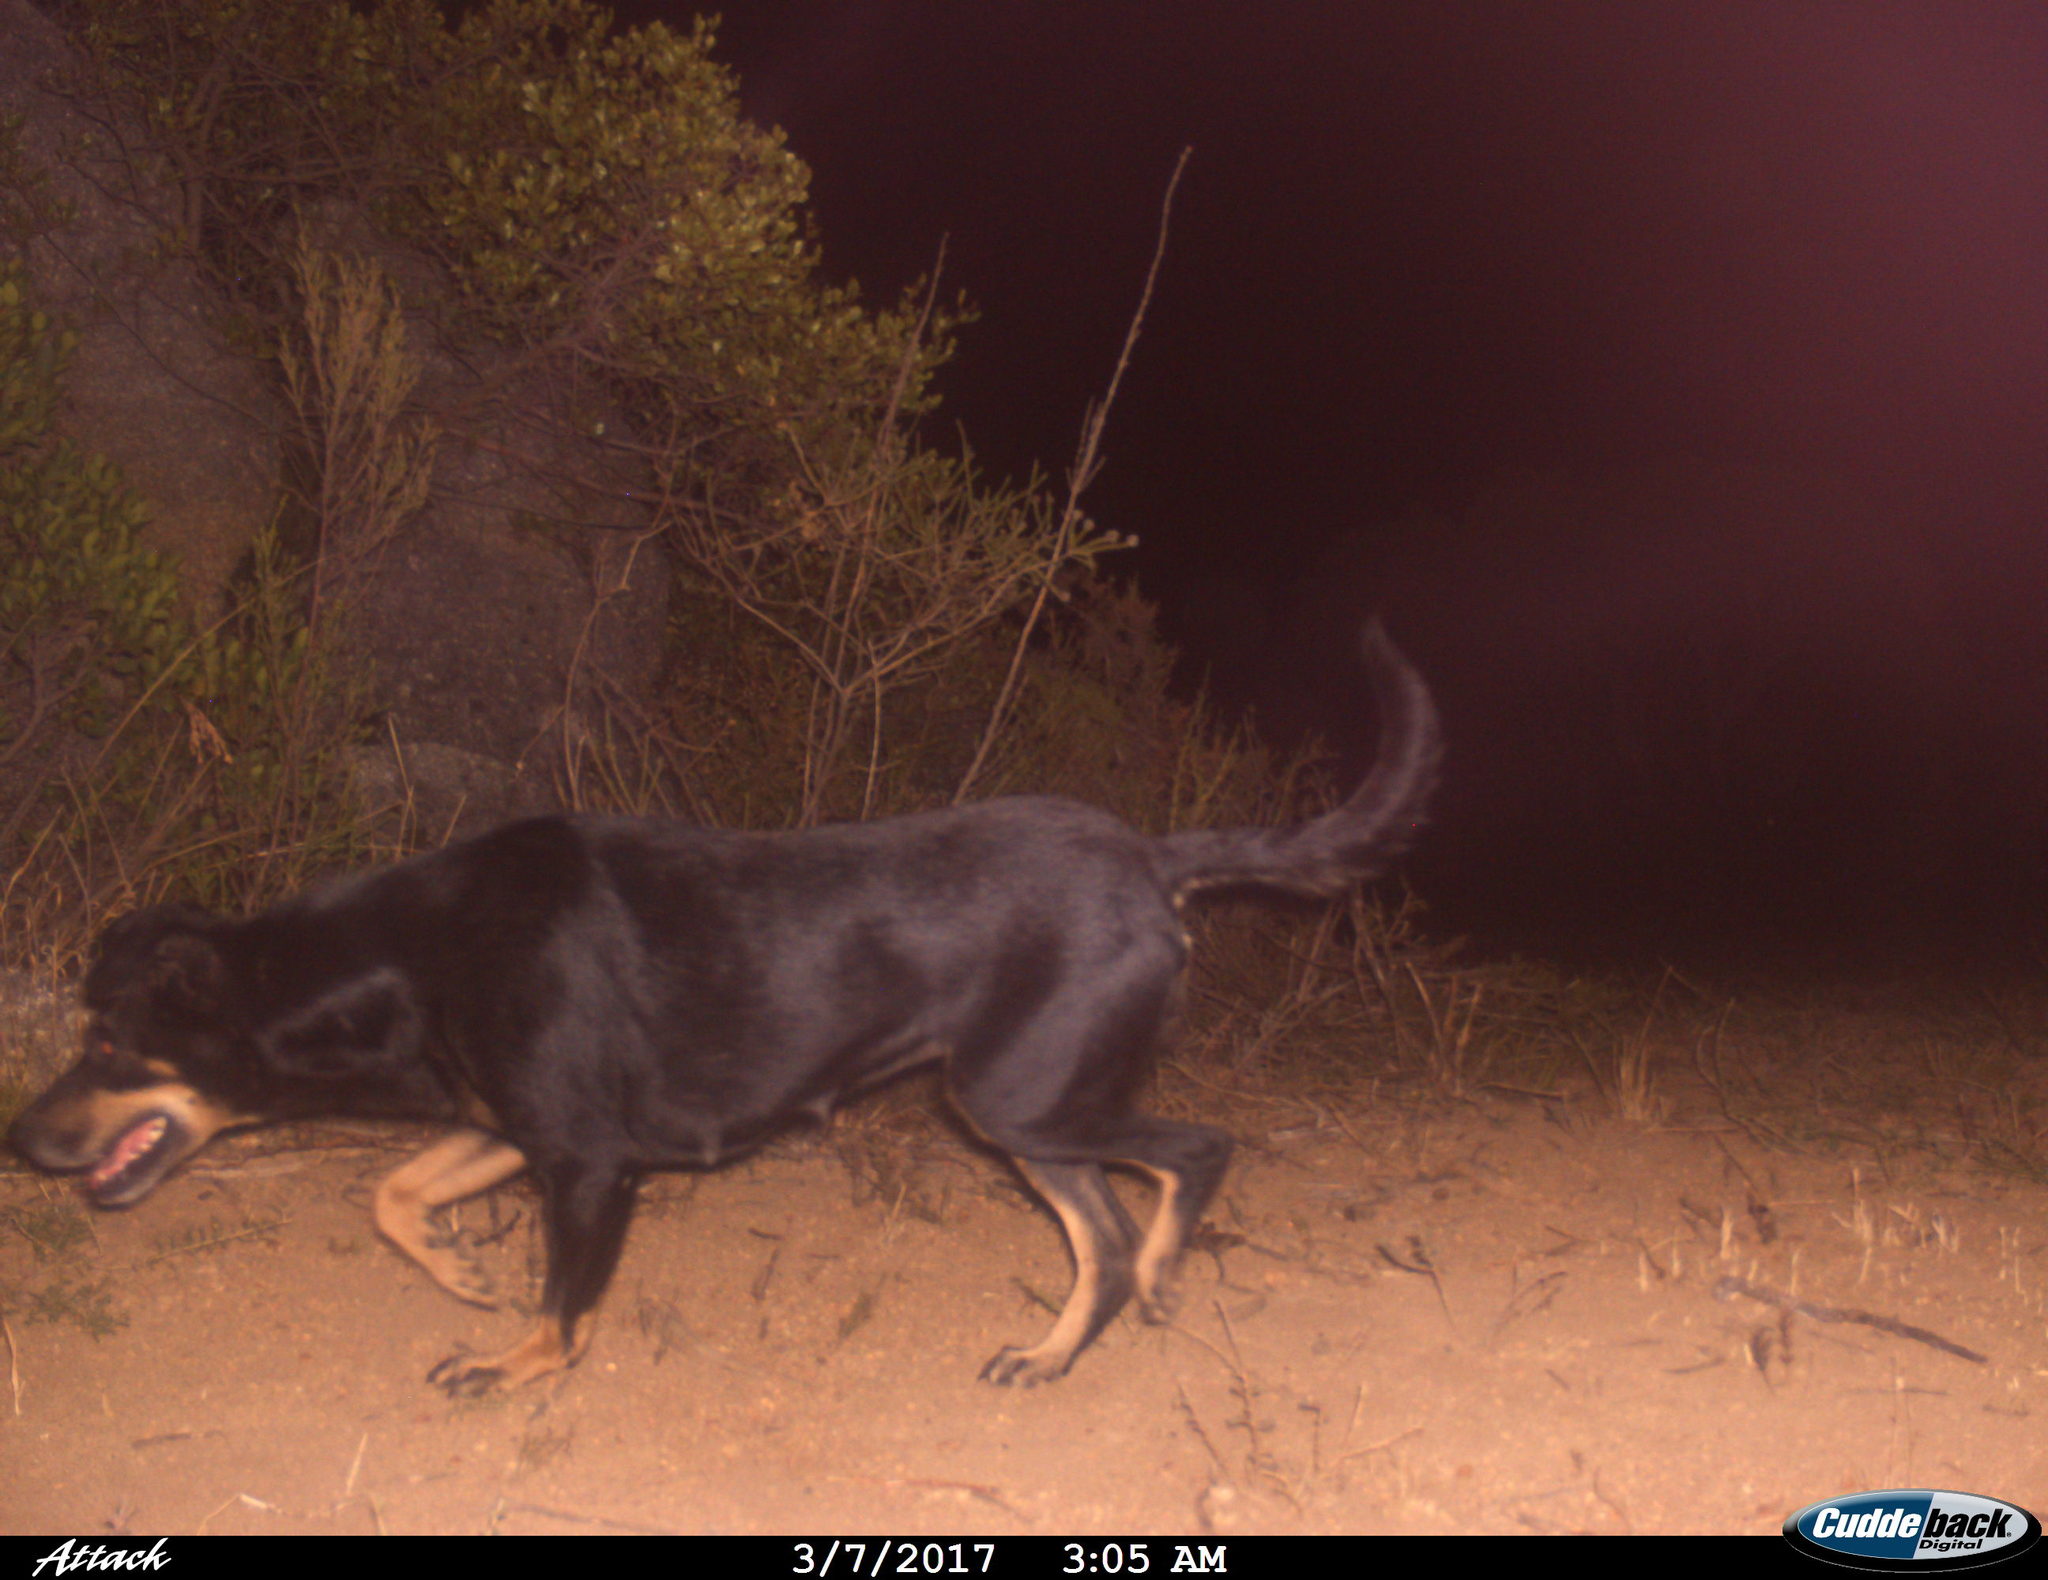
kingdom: Animalia
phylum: Chordata
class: Mammalia
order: Carnivora
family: Canidae
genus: Canis
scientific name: Canis lupus
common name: Gray wolf
